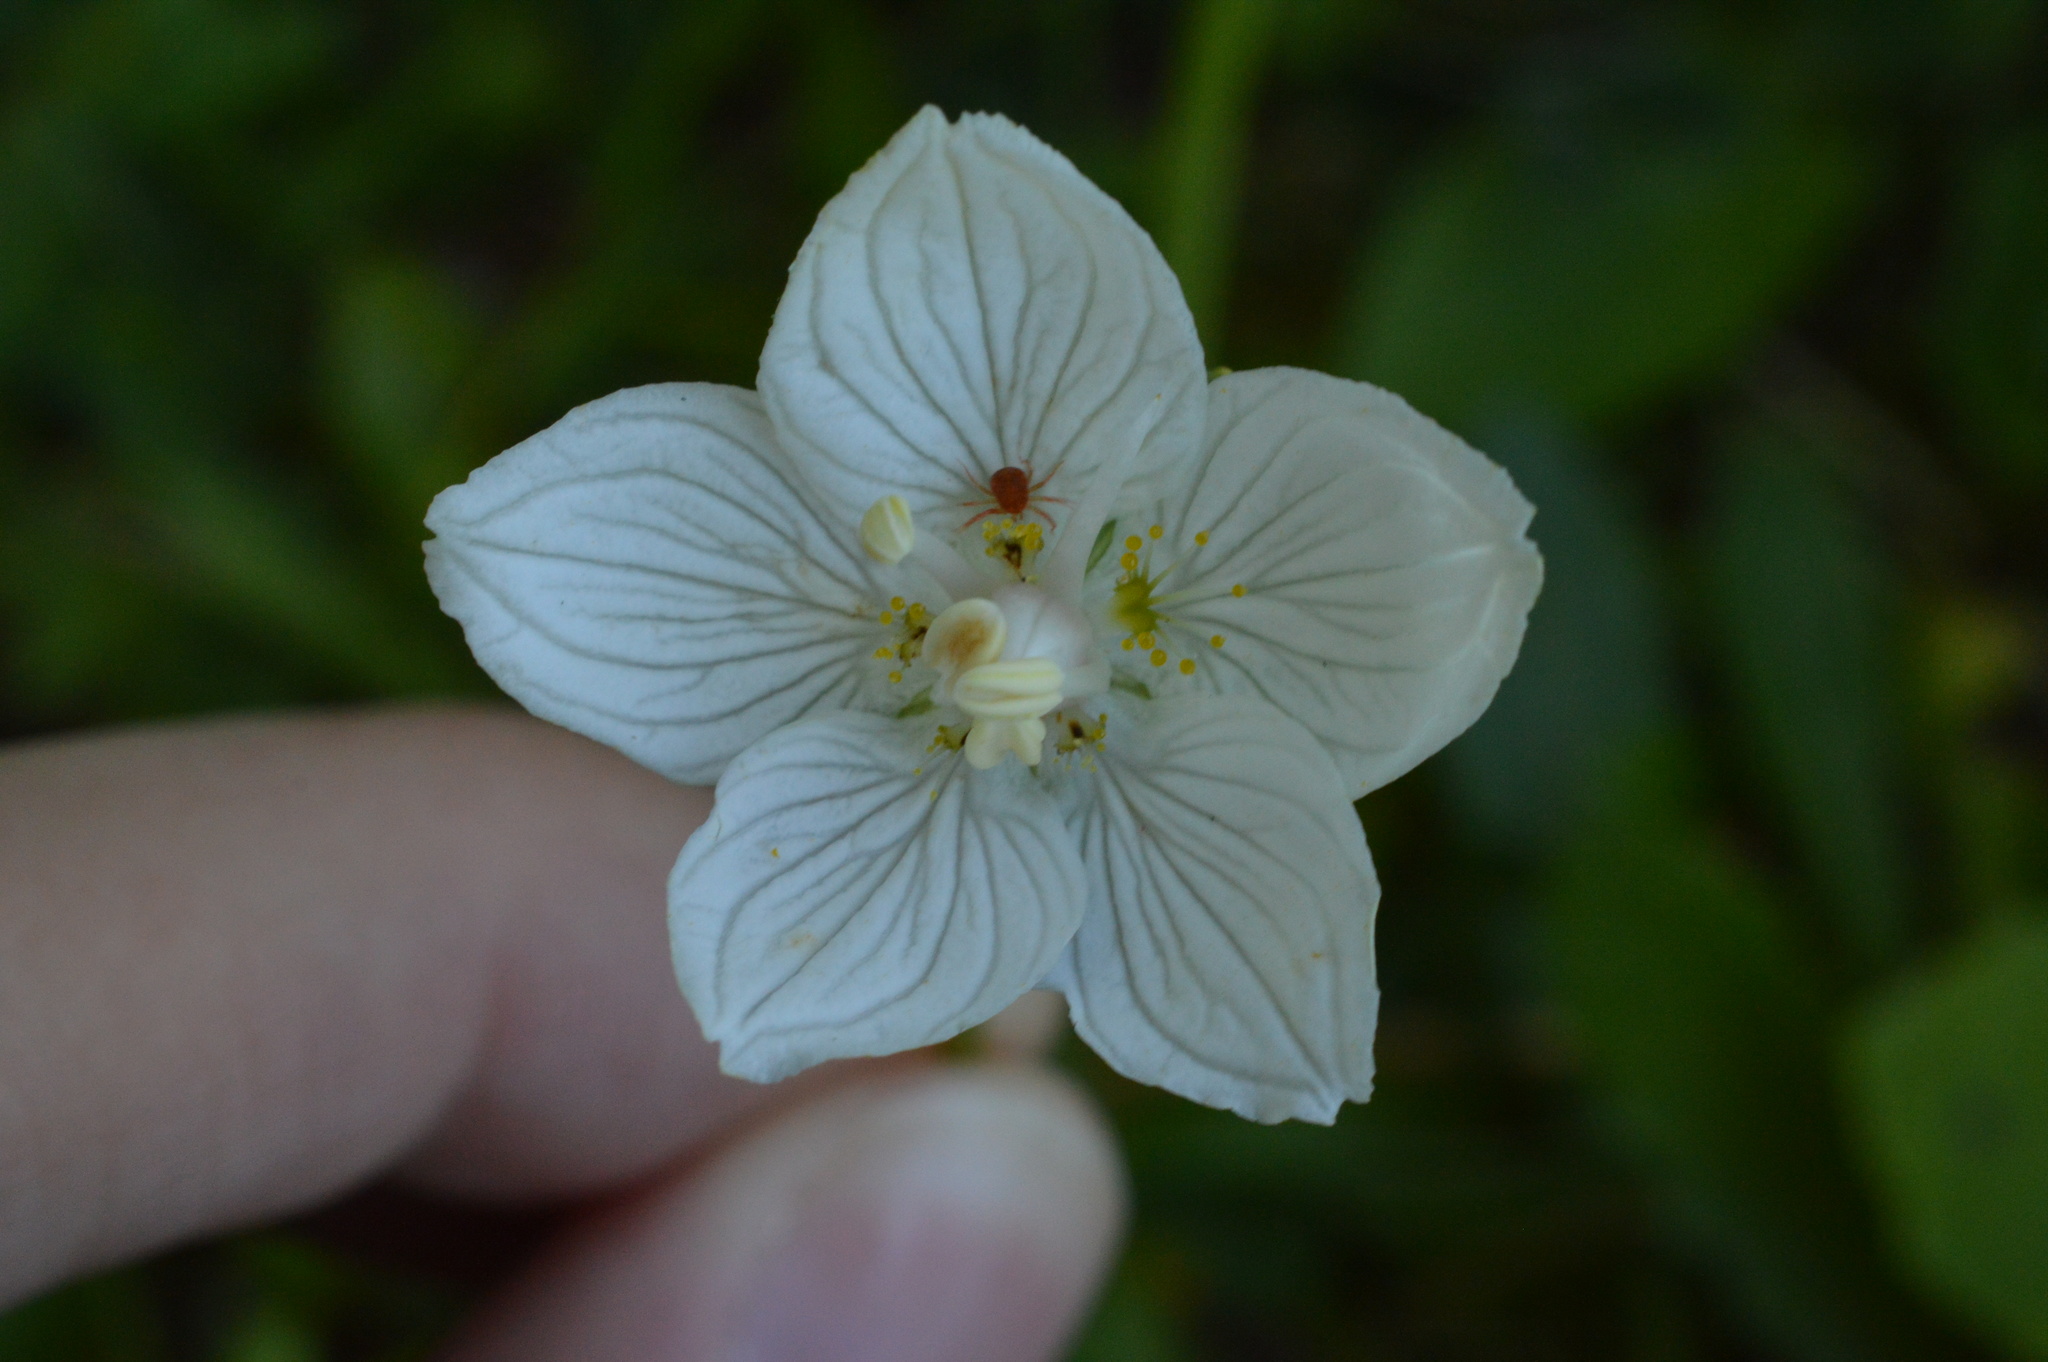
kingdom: Plantae
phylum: Tracheophyta
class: Magnoliopsida
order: Celastrales
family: Parnassiaceae
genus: Parnassia
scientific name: Parnassia palustris
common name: Grass-of-parnassus
